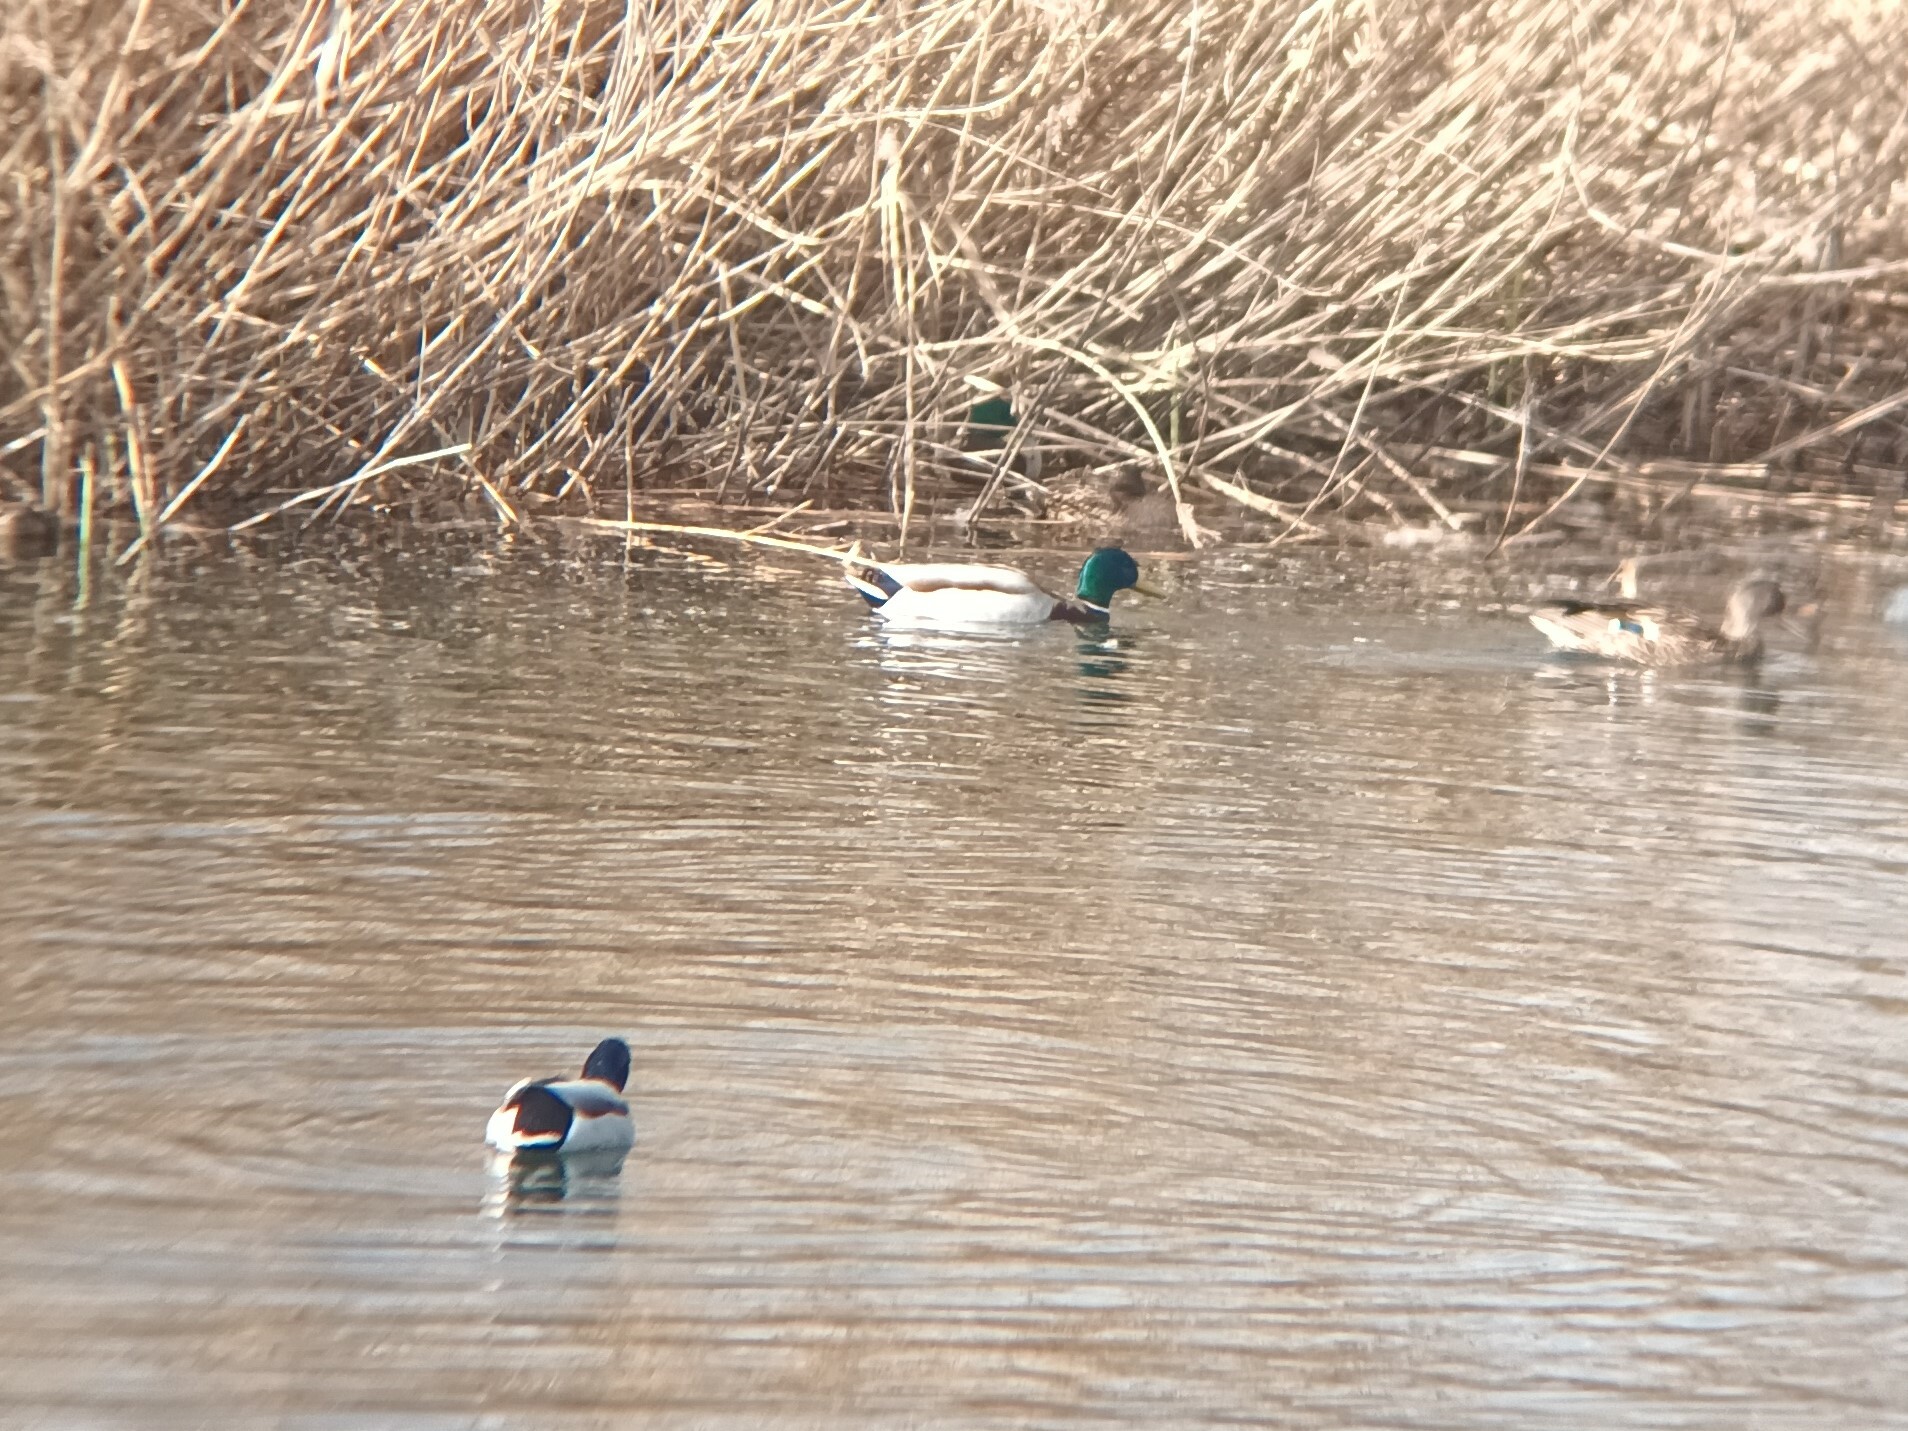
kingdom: Animalia
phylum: Chordata
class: Aves
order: Anseriformes
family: Anatidae
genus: Anas
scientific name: Anas platyrhynchos
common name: Mallard
